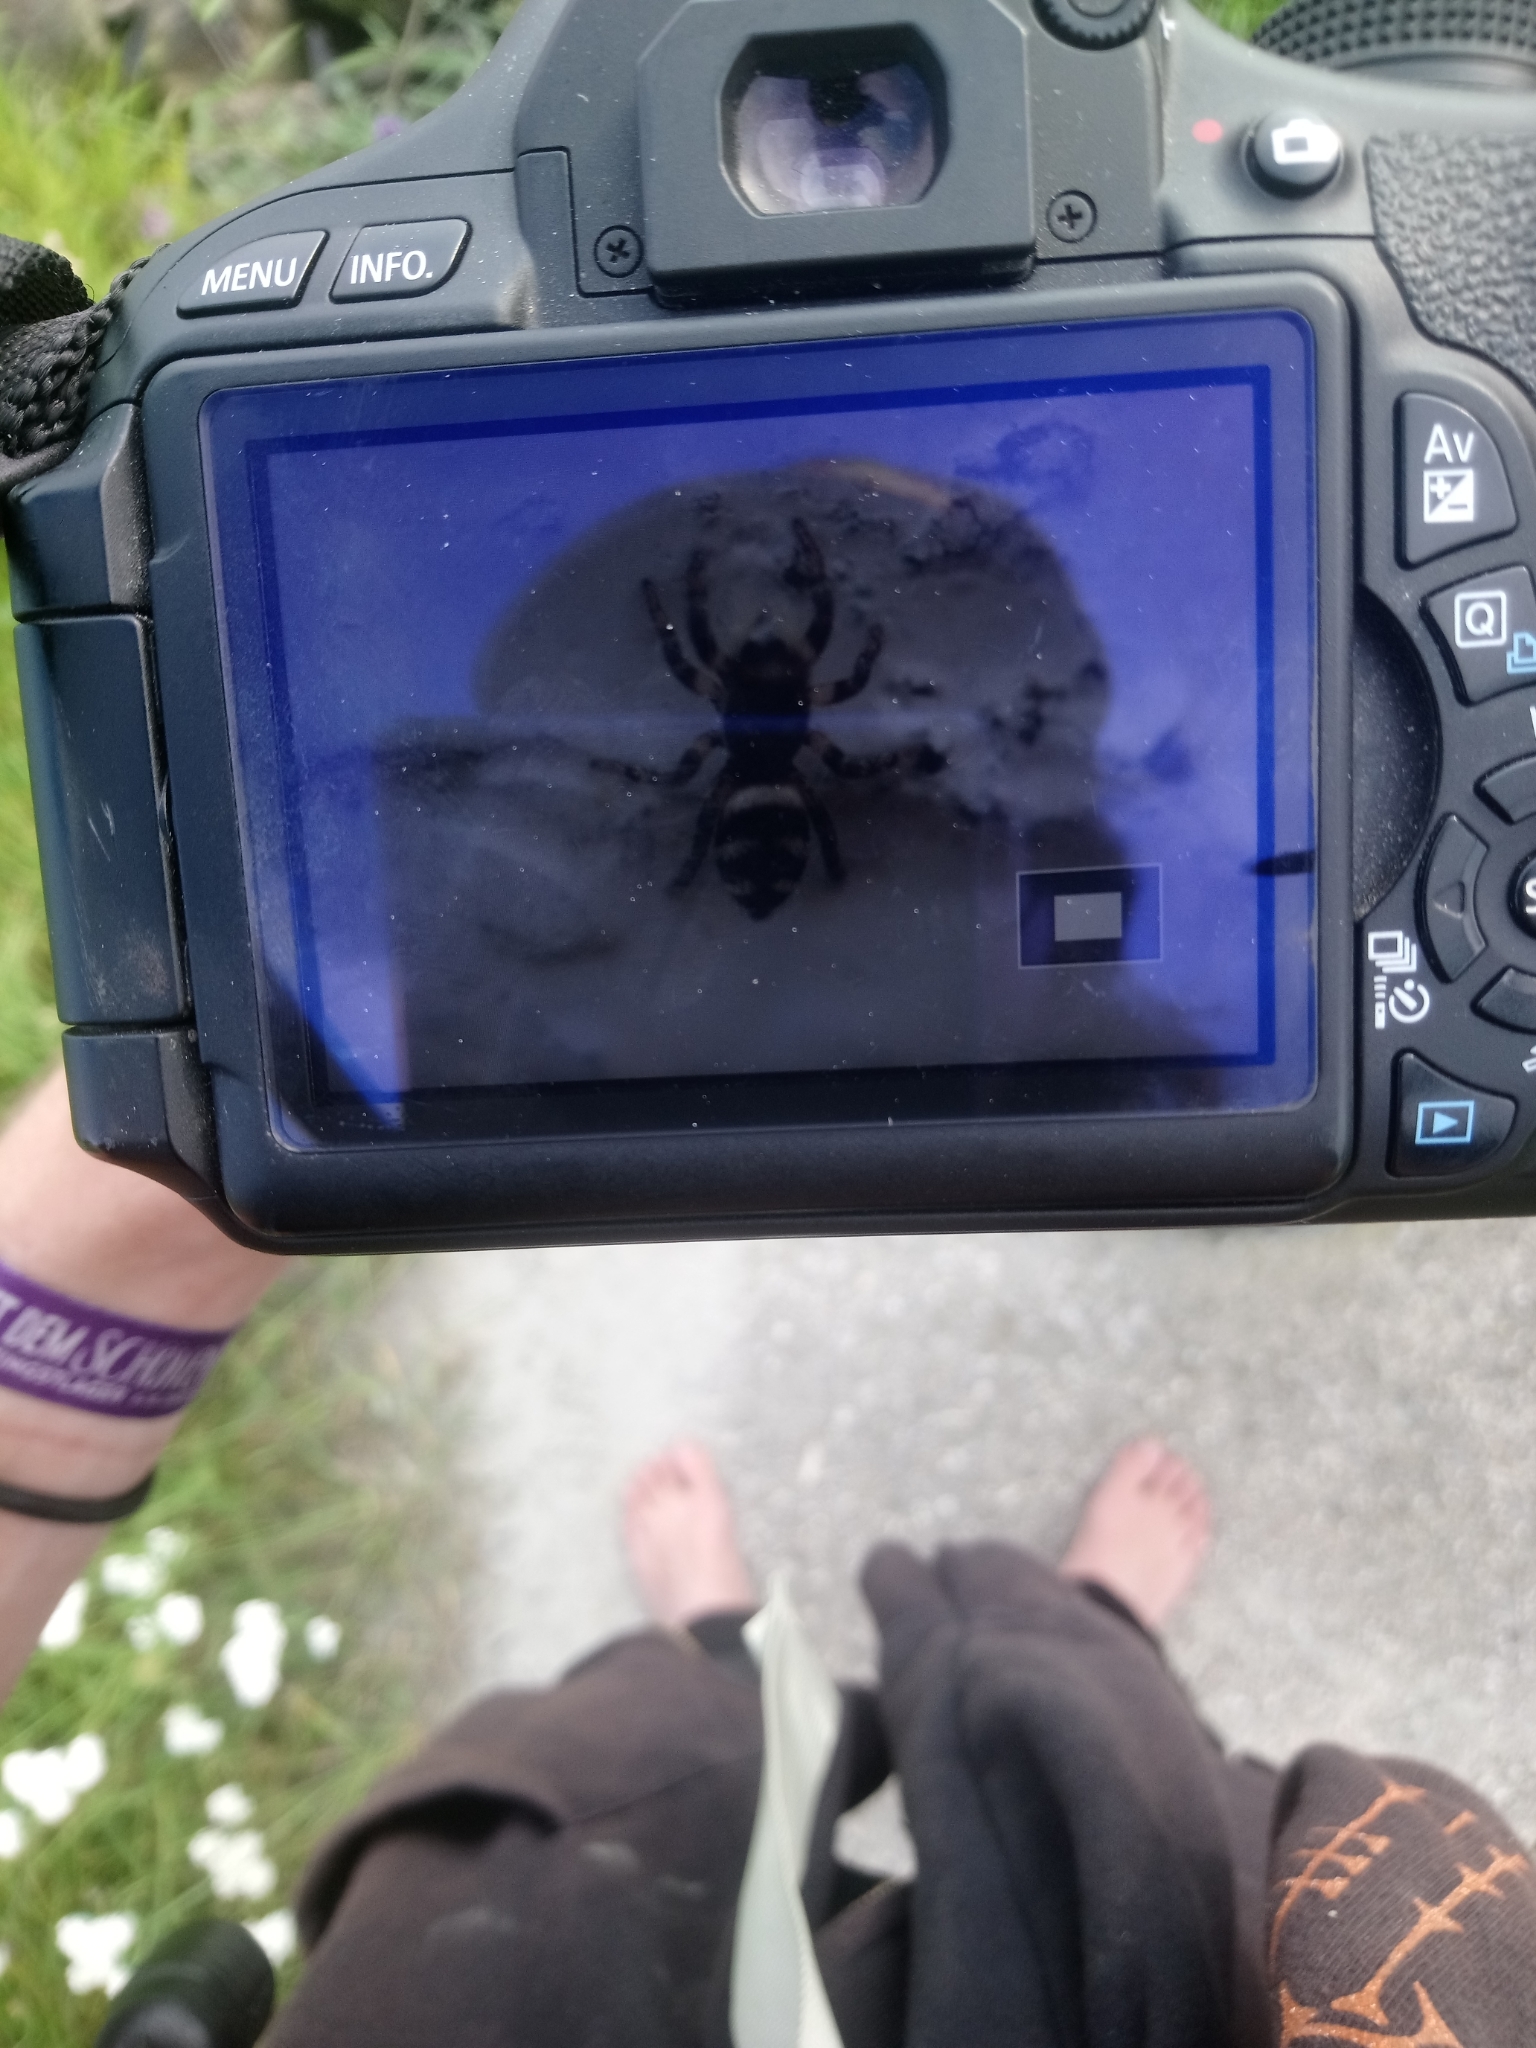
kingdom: Animalia
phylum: Arthropoda
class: Arachnida
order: Araneae
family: Salticidae
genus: Salticus
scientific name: Salticus scenicus
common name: Zebra jumper
